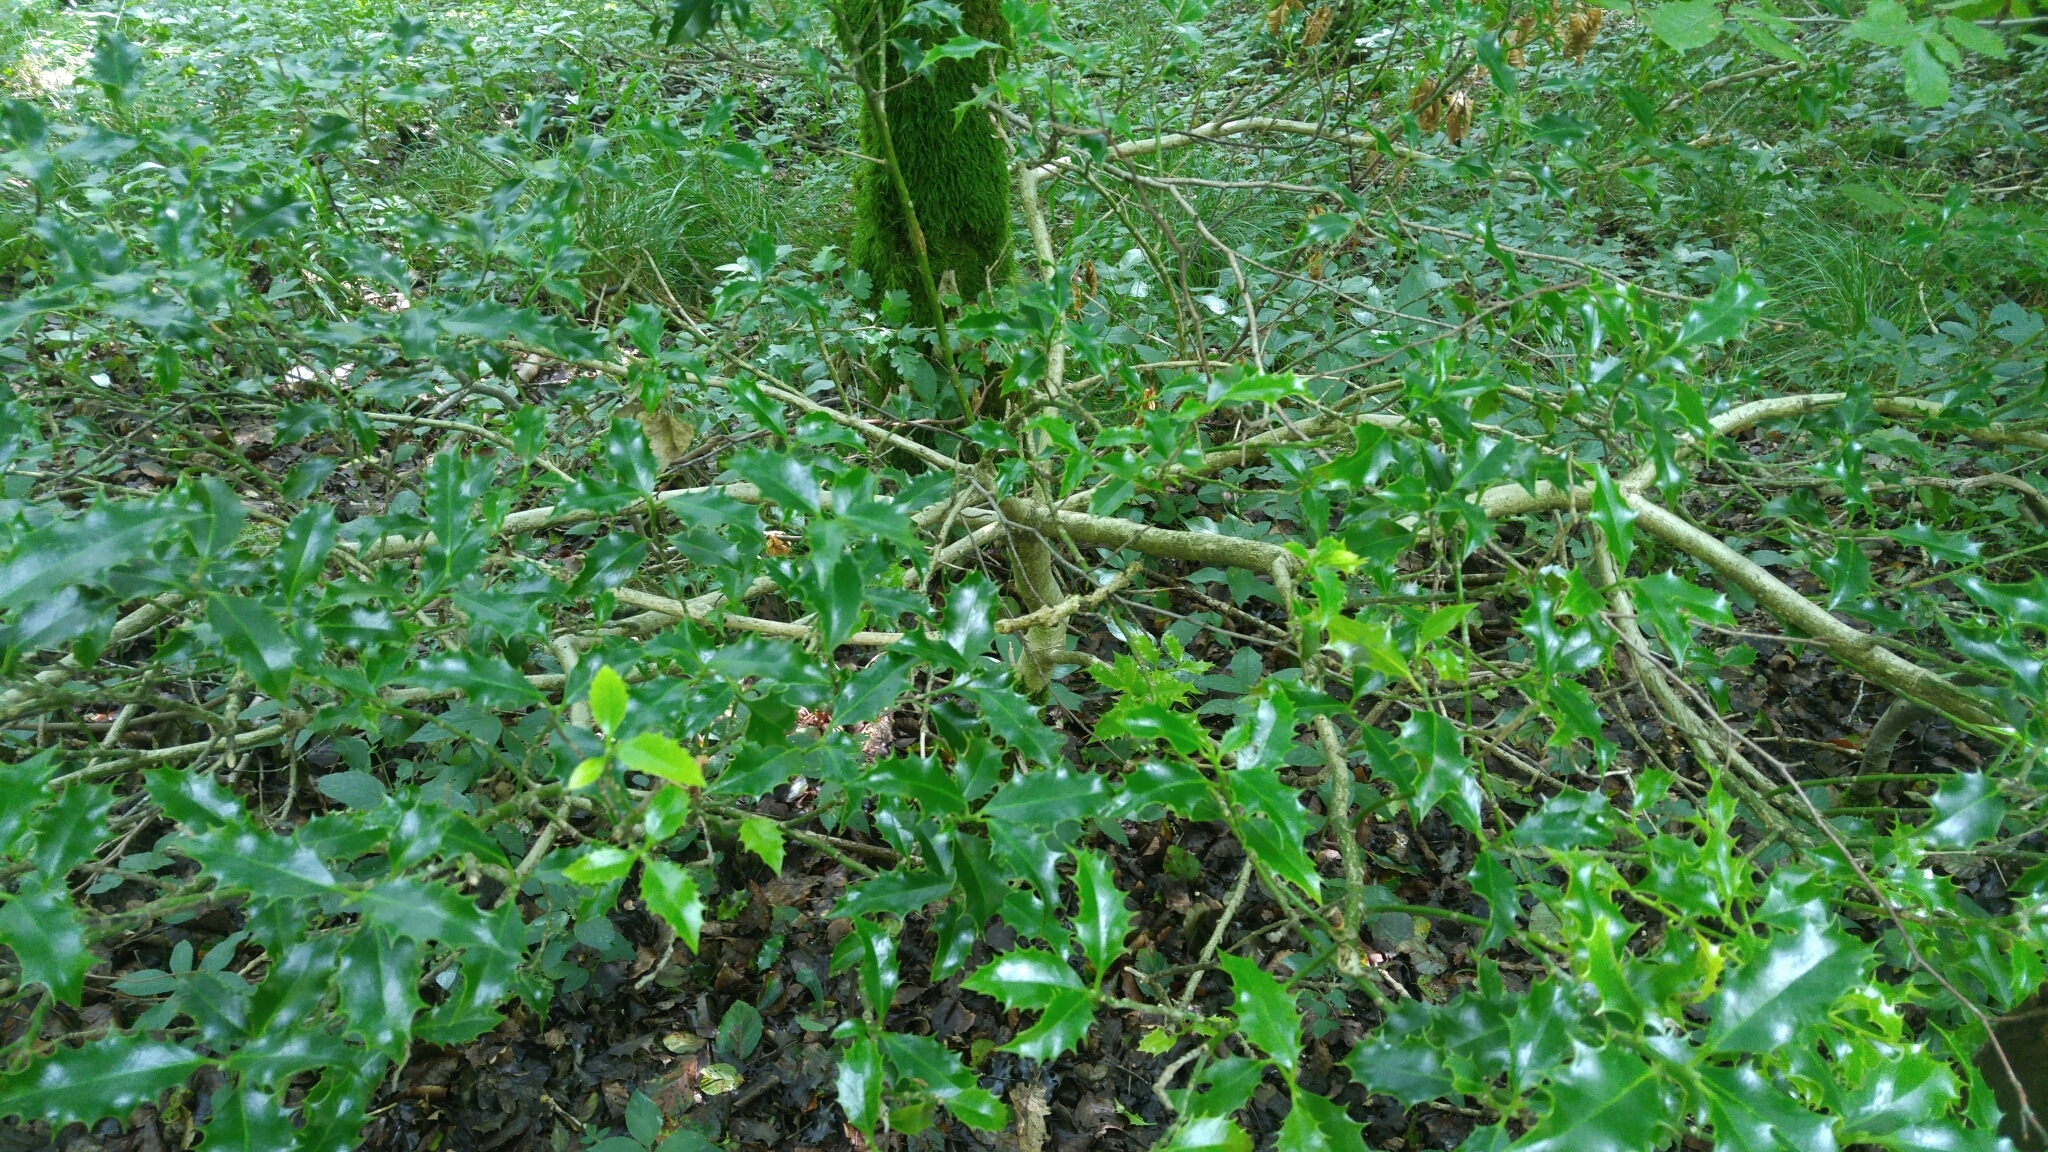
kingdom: Plantae
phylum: Tracheophyta
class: Magnoliopsida
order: Aquifoliales
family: Aquifoliaceae
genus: Ilex
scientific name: Ilex aquifolium
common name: English holly
